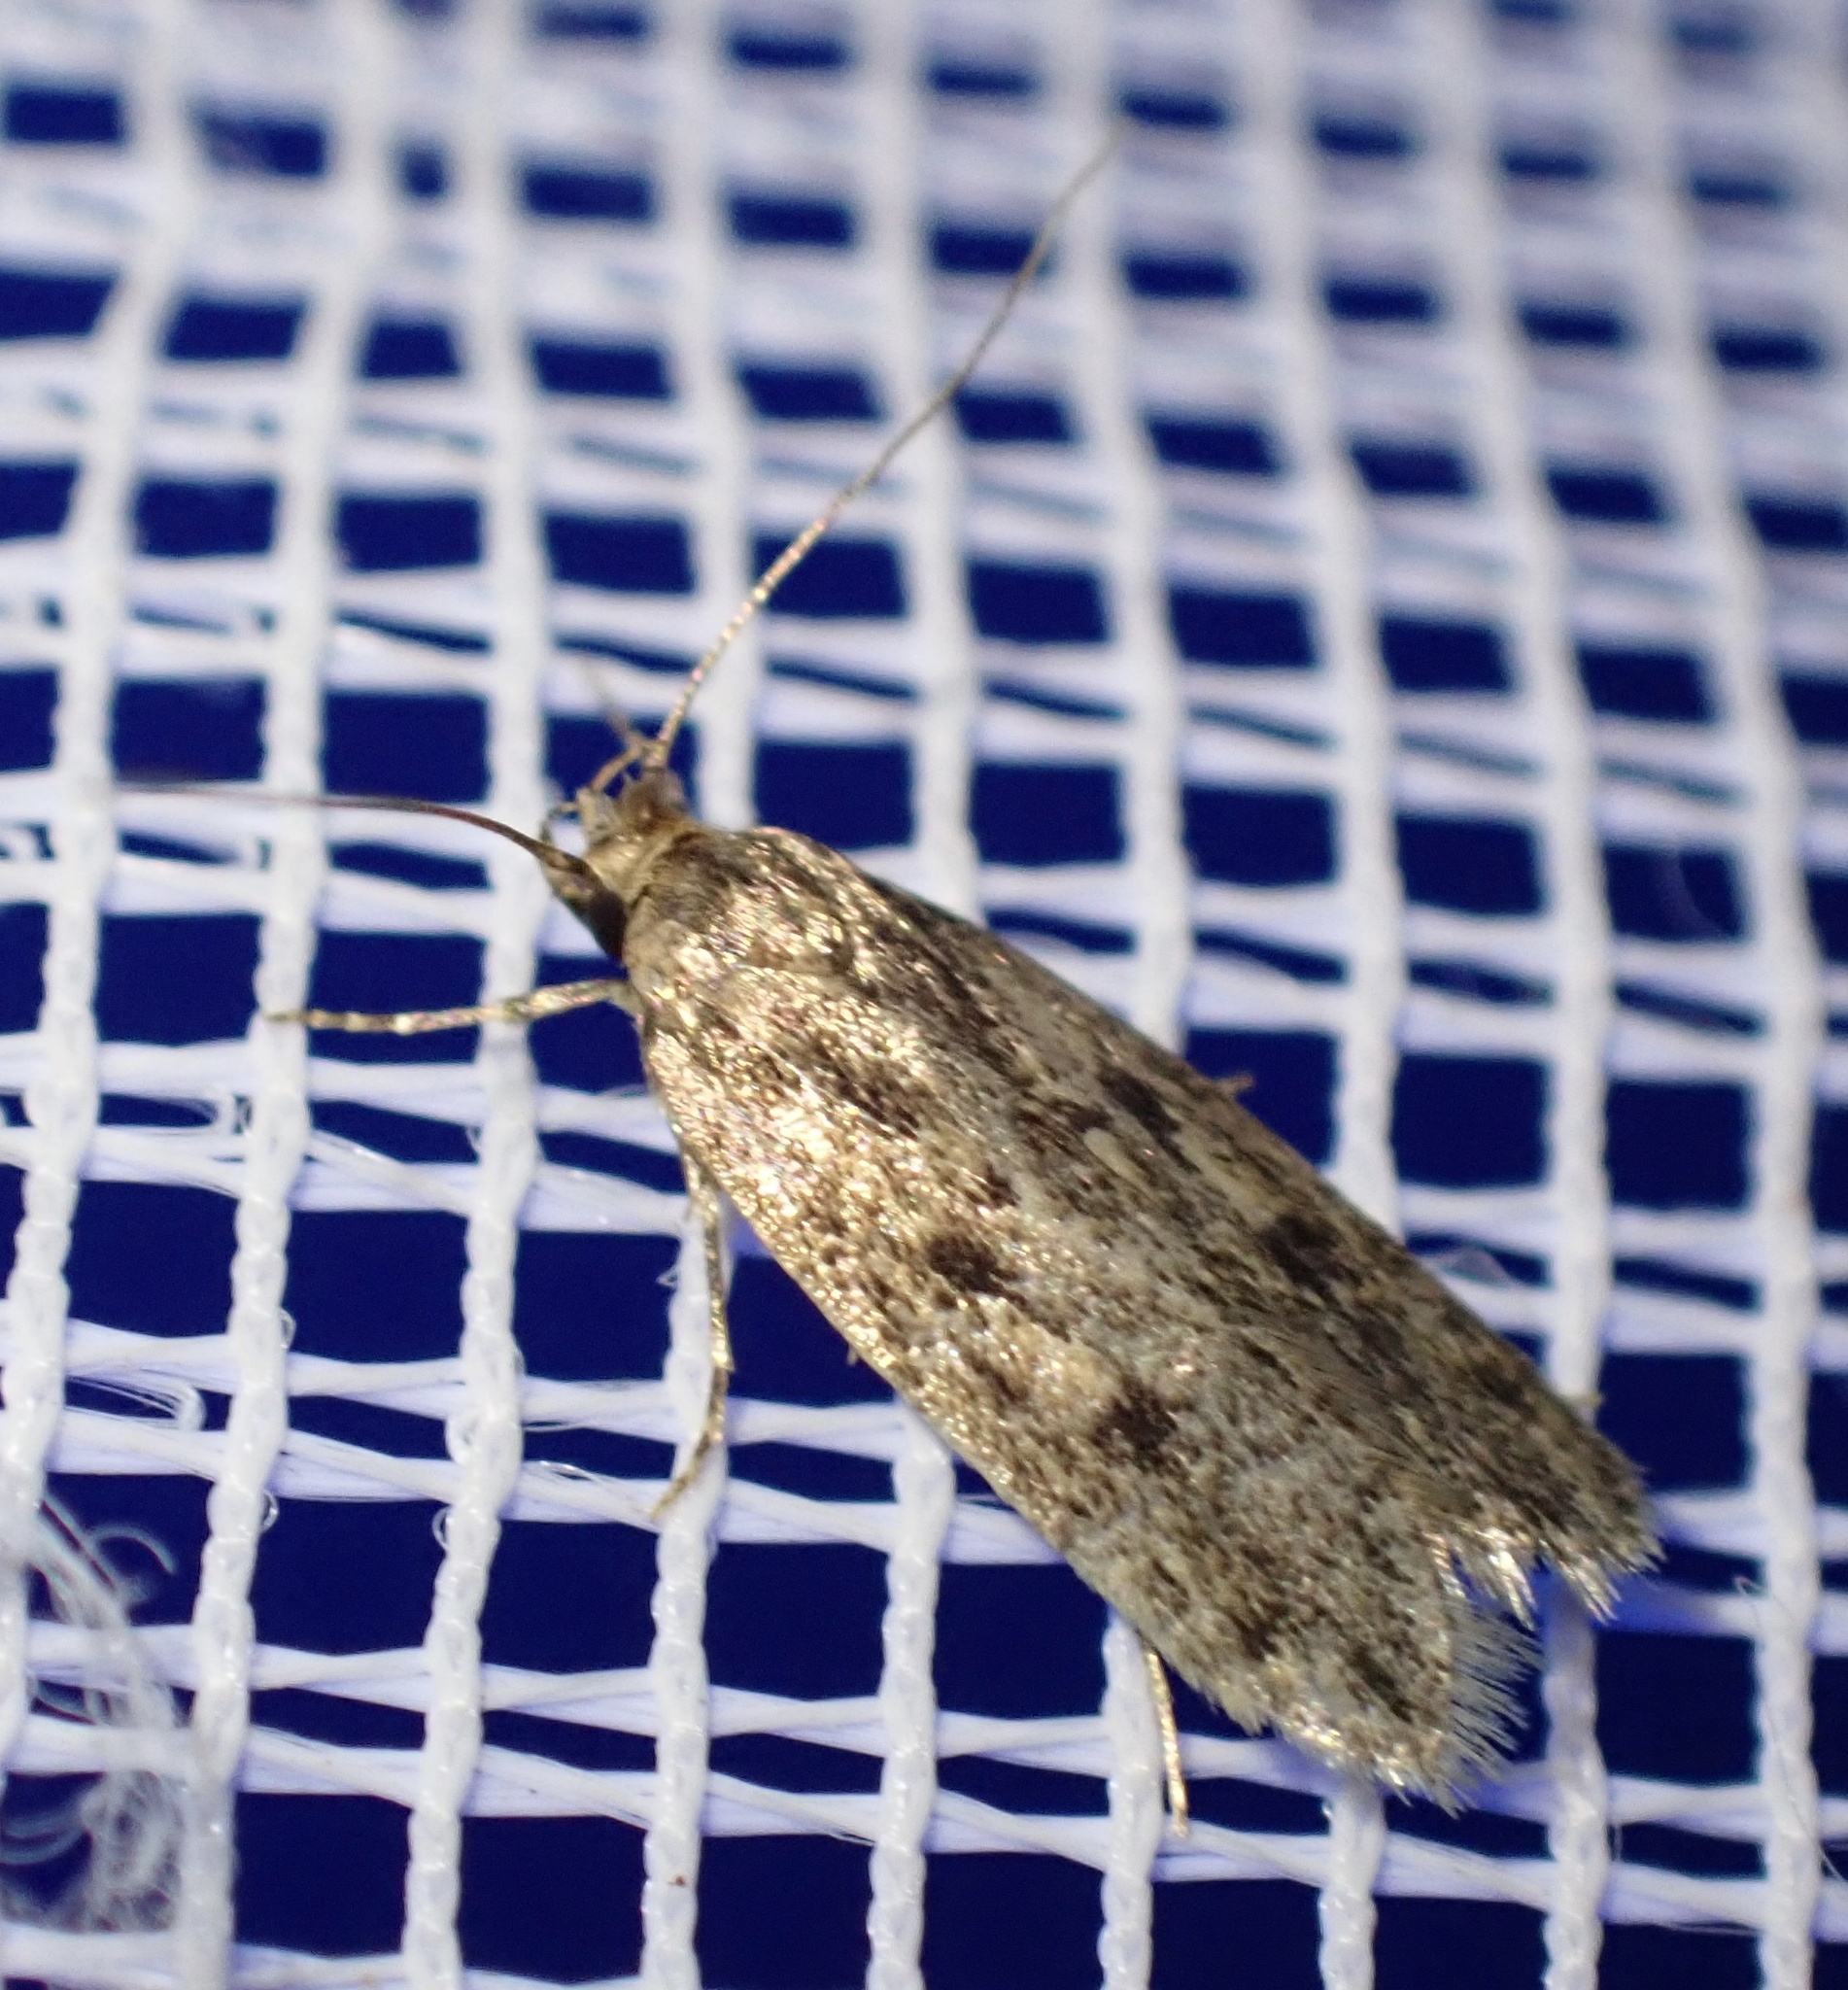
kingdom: Animalia
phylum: Arthropoda
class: Insecta
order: Lepidoptera
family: Oecophoridae
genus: Hofmannophila
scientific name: Hofmannophila pseudospretella
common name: Brown house moth
